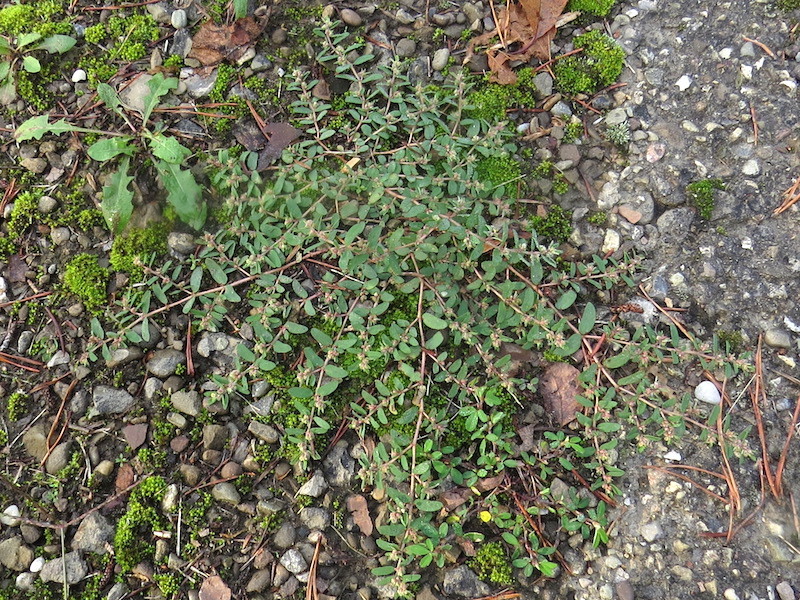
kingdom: Plantae
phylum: Tracheophyta
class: Magnoliopsida
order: Malpighiales
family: Euphorbiaceae
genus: Euphorbia
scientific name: Euphorbia maculata
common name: Spotted spurge
